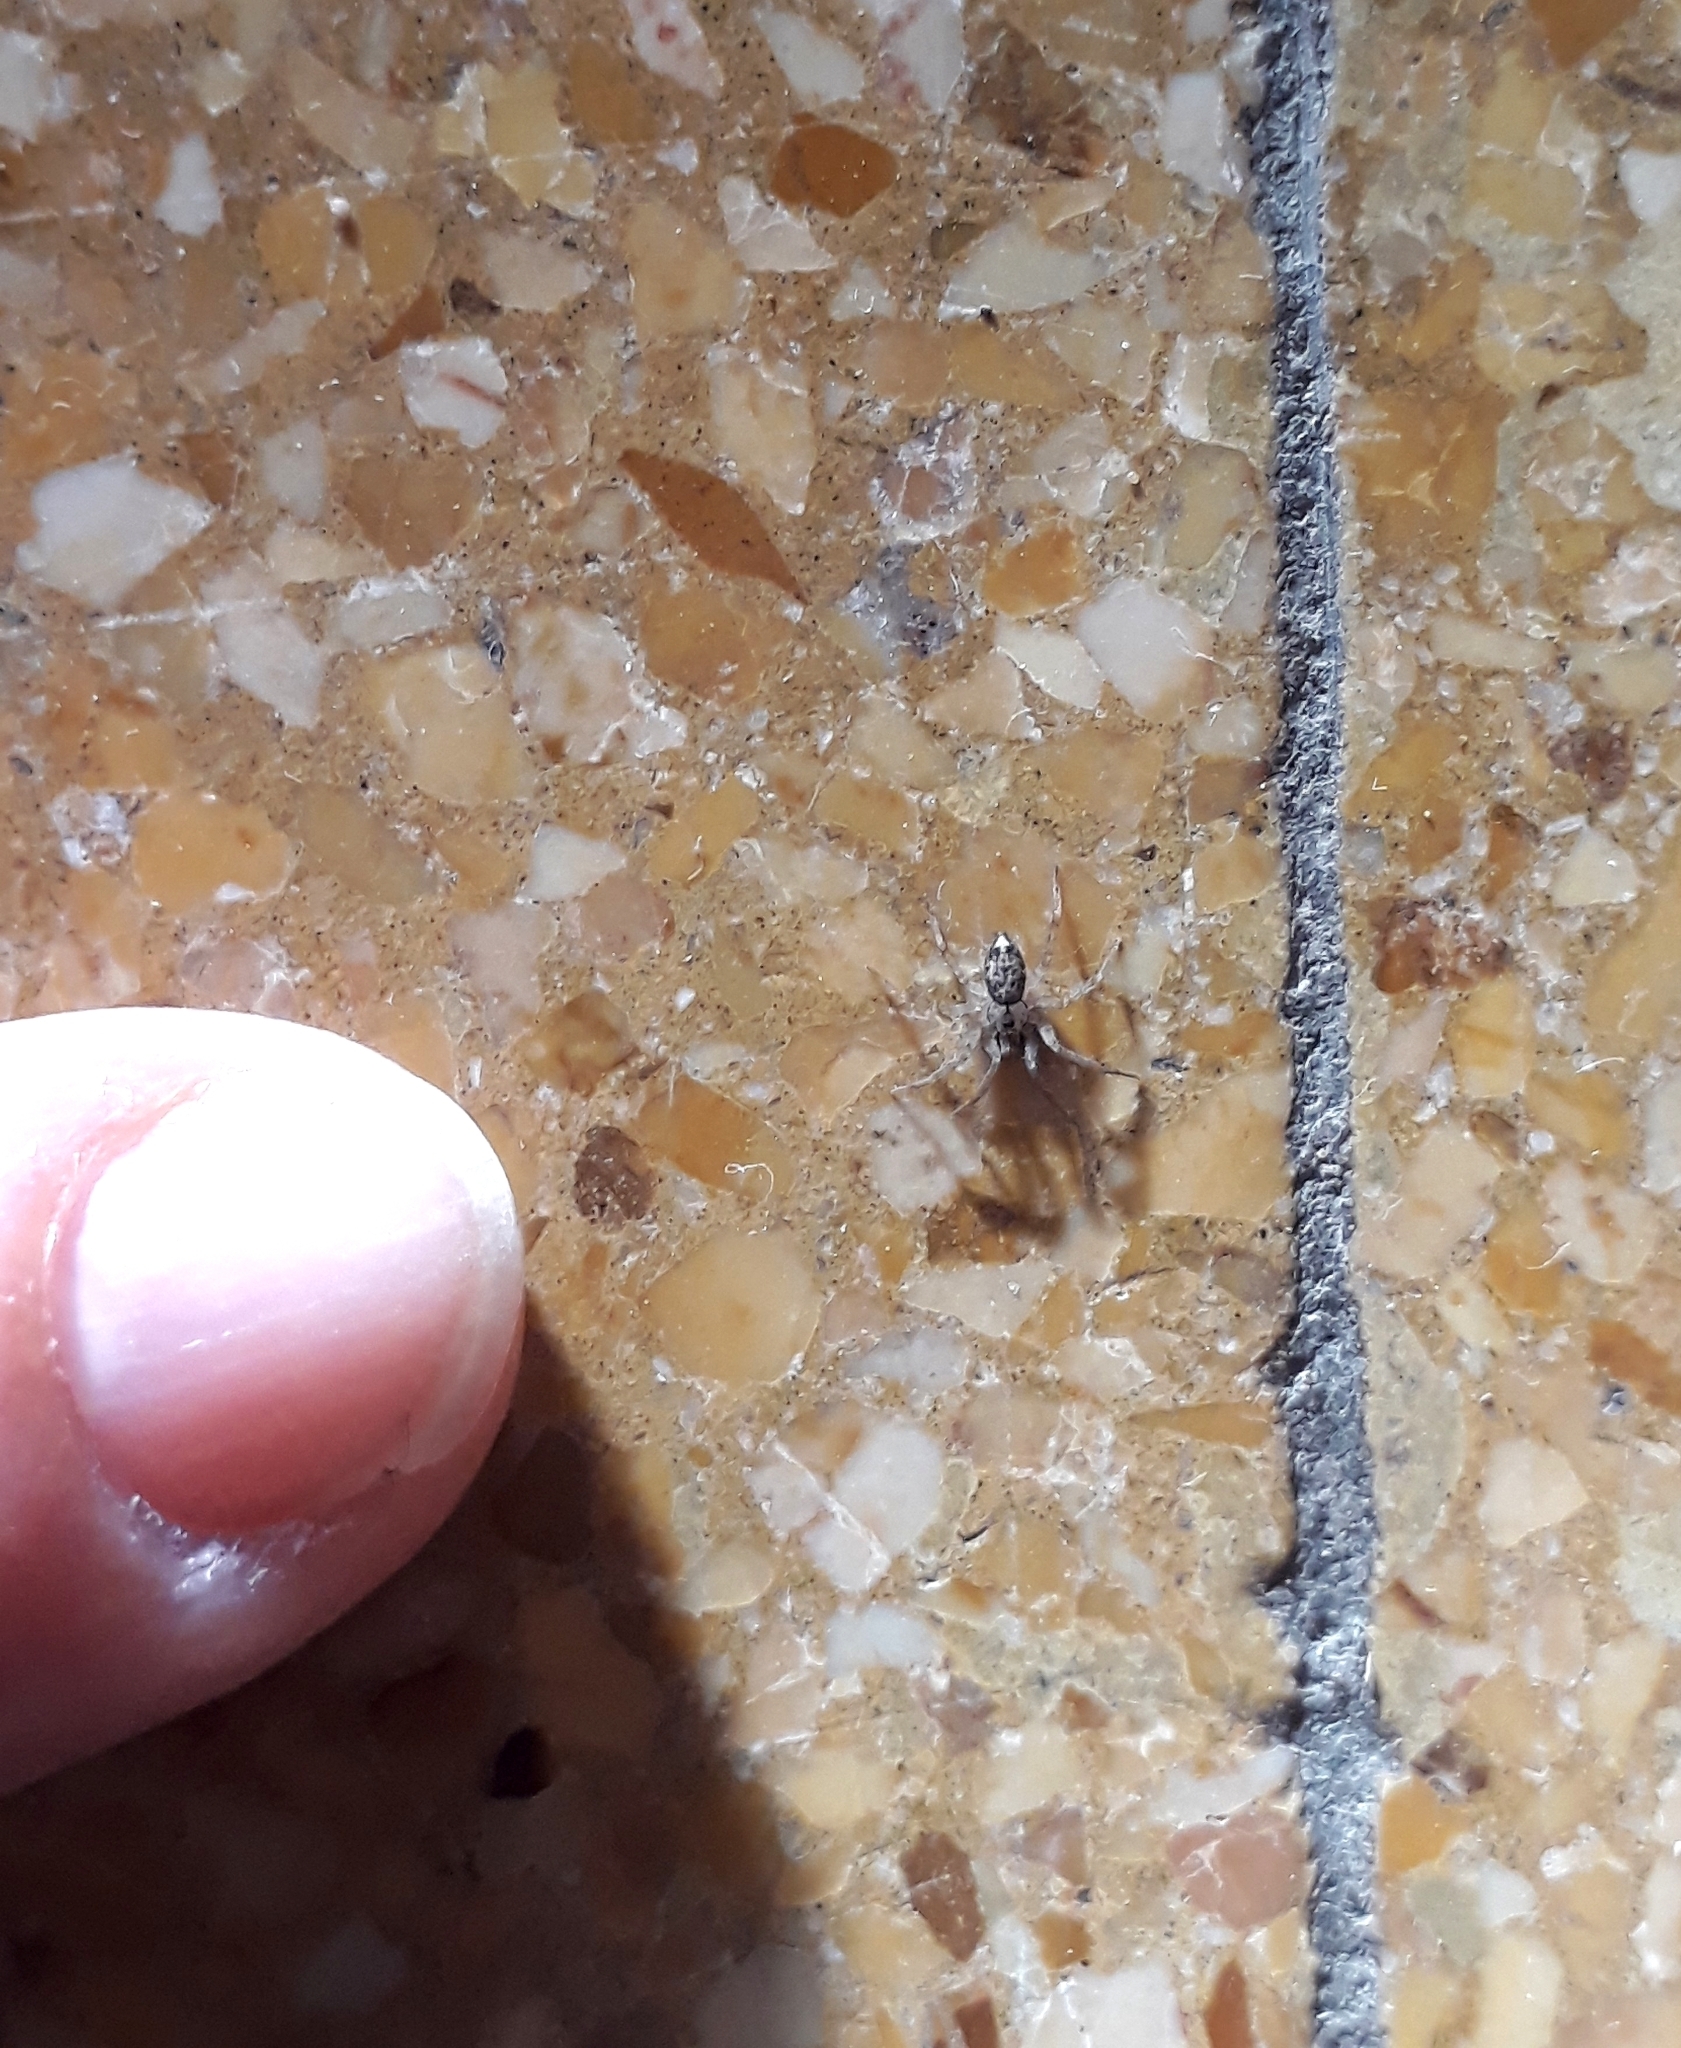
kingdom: Animalia
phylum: Arthropoda
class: Arachnida
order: Araneae
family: Oecobiidae
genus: Oecobius
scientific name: Oecobius navus
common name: Flatmesh weaver
